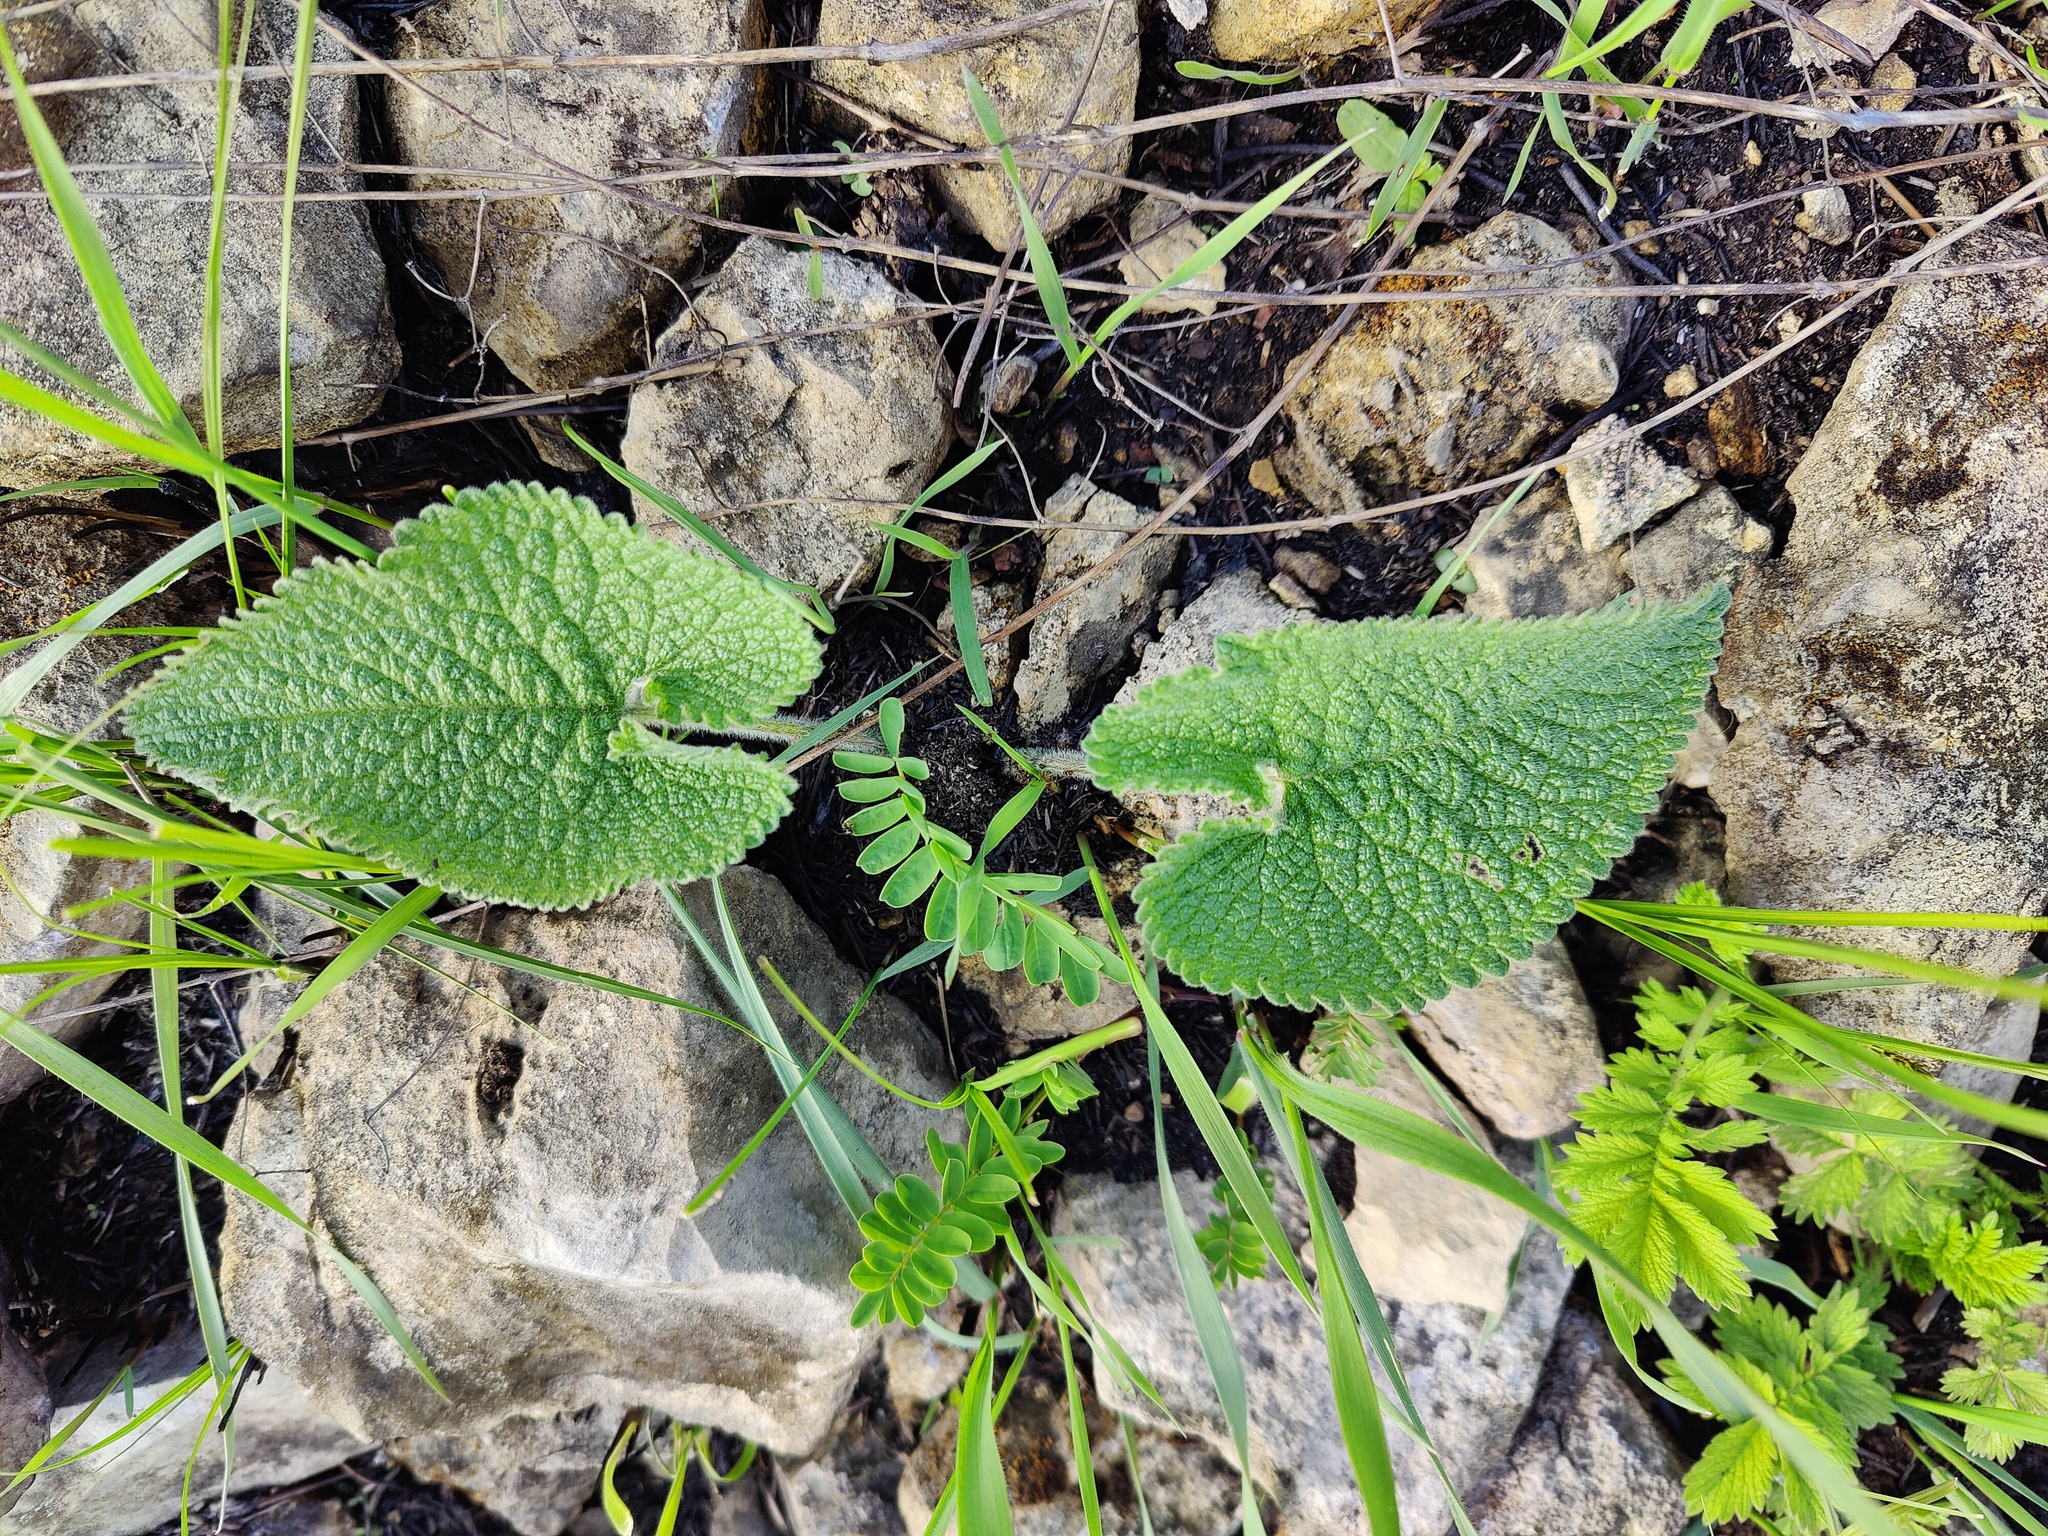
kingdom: Plantae
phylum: Tracheophyta
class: Magnoliopsida
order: Lamiales
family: Lamiaceae
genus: Phlomoides
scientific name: Phlomoides tuberosa
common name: Tuberous jerusalem sage
